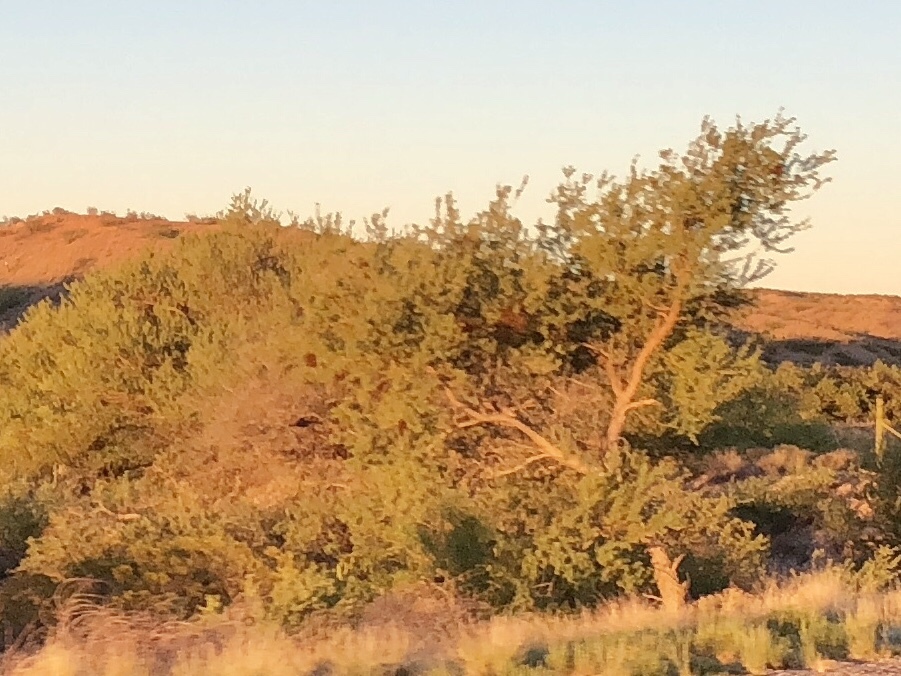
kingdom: Plantae
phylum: Tracheophyta
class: Magnoliopsida
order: Fabales
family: Fabaceae
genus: Senegalia
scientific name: Senegalia greggii
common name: Texas-mimosa
